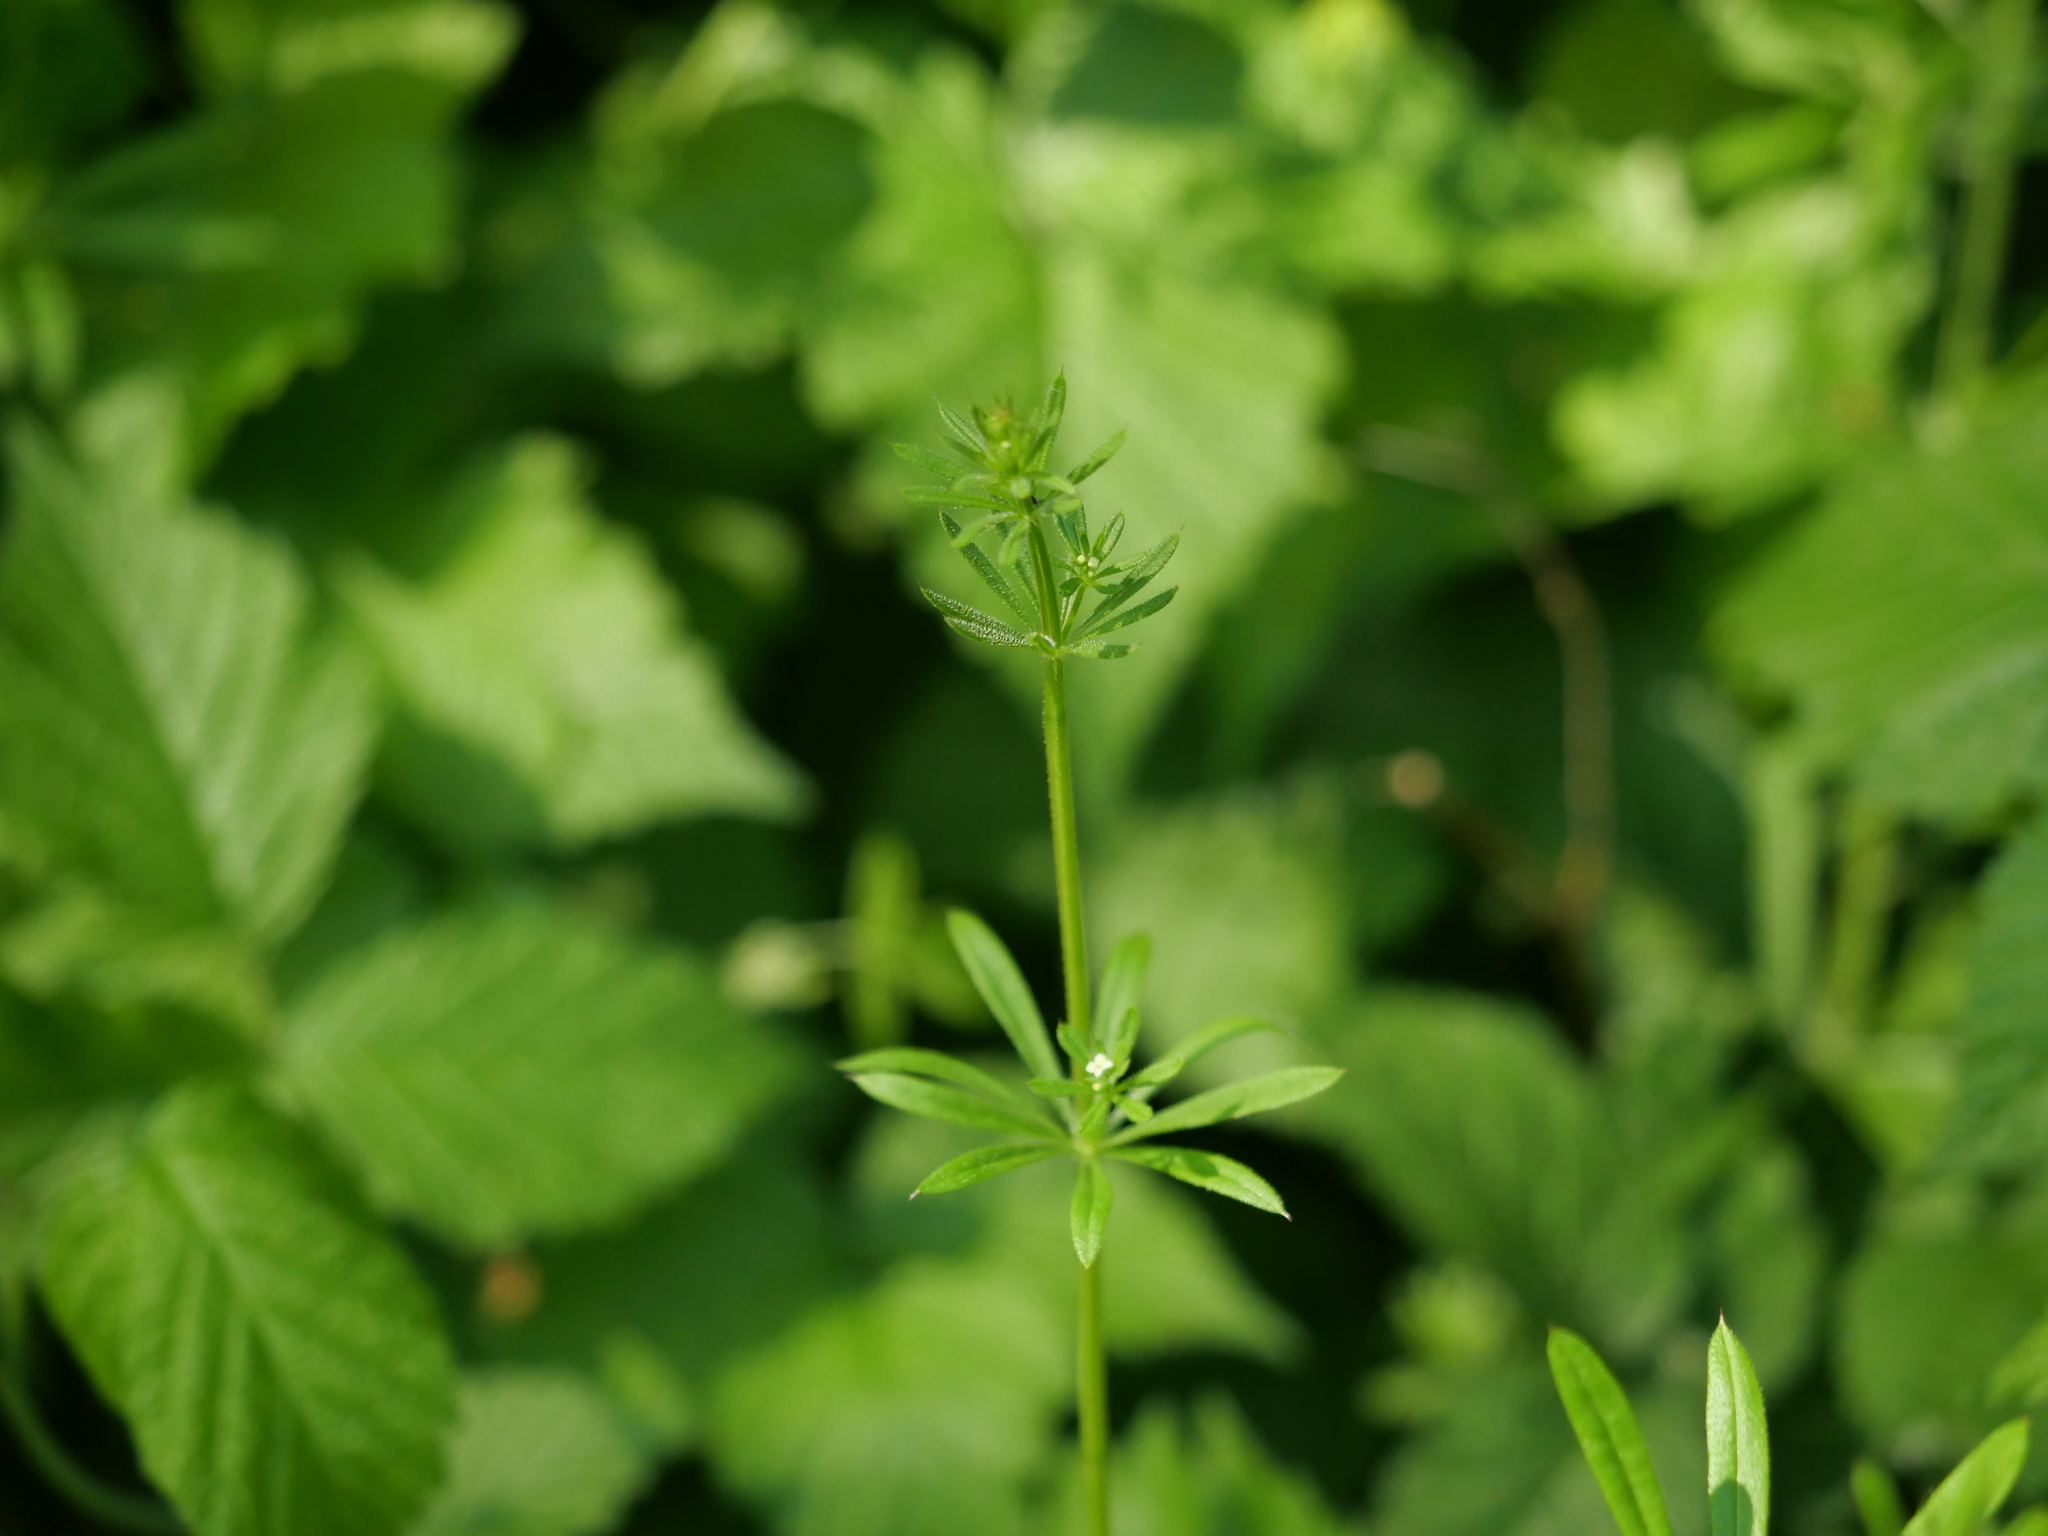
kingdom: Plantae
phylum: Tracheophyta
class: Magnoliopsida
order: Gentianales
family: Rubiaceae
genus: Galium
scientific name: Galium aparine
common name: Cleavers
